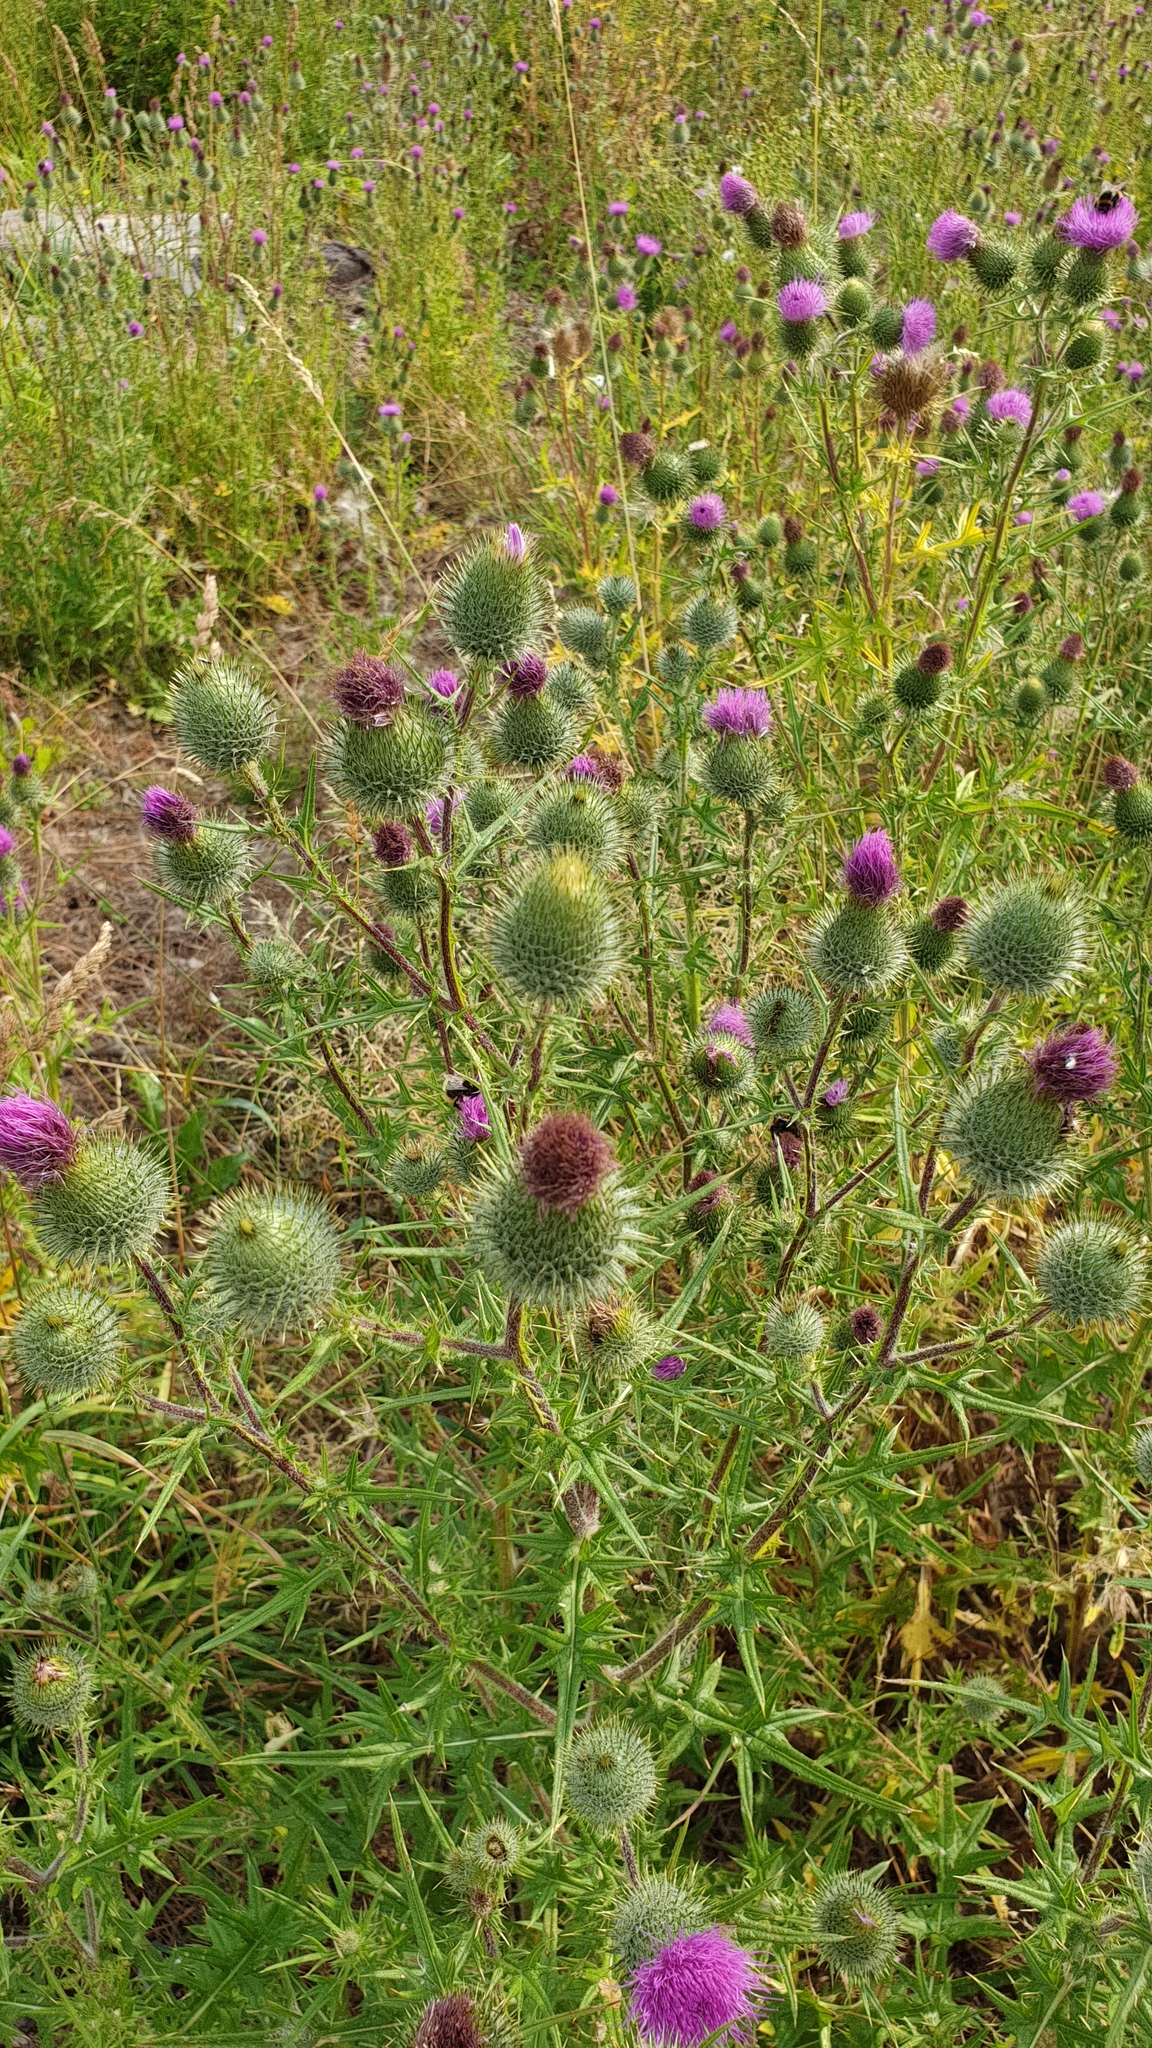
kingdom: Plantae
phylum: Tracheophyta
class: Magnoliopsida
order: Asterales
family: Asteraceae
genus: Cirsium
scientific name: Cirsium vulgare
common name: Bull thistle
